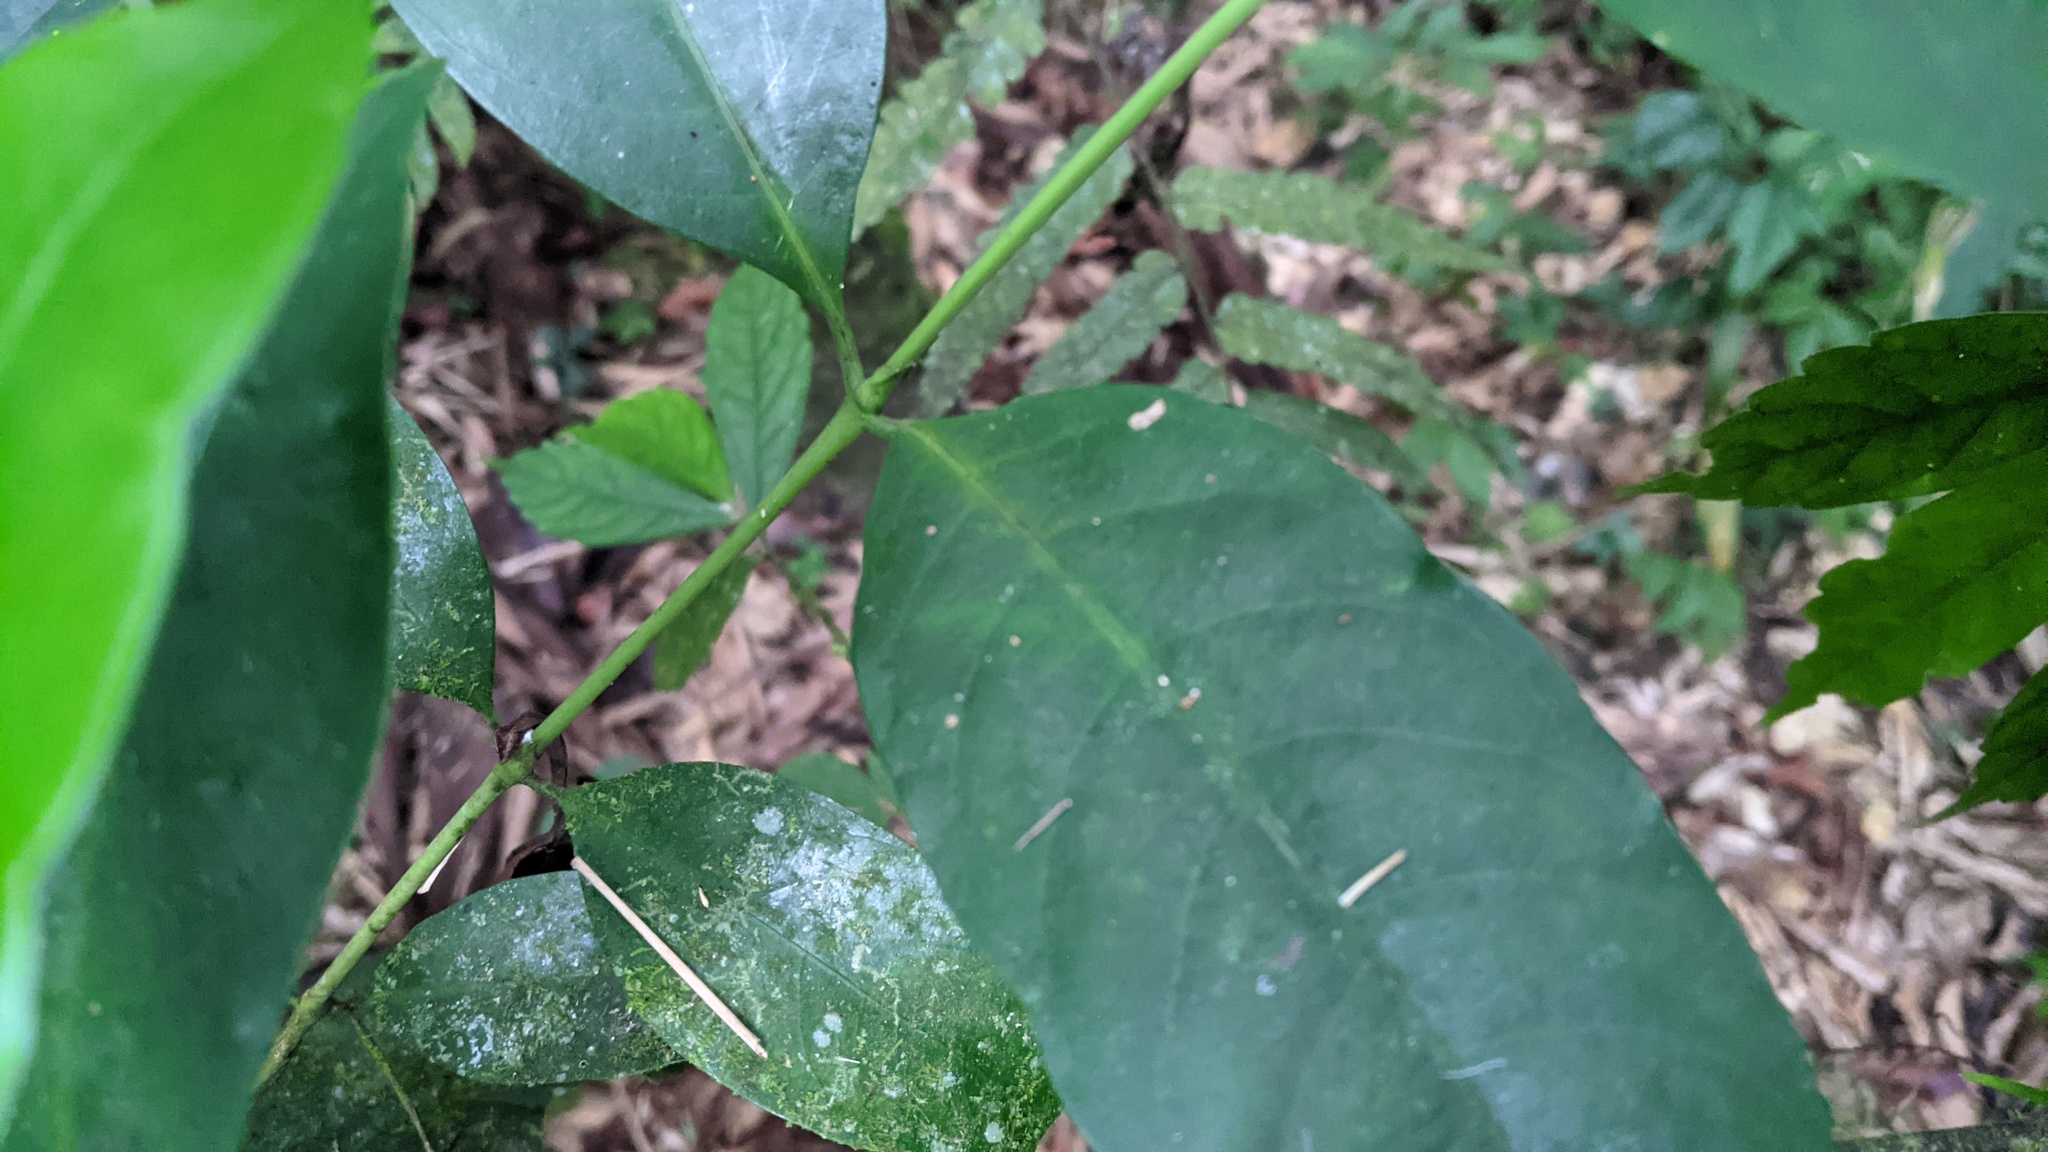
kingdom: Plantae
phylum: Tracheophyta
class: Magnoliopsida
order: Gentianales
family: Rubiaceae
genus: Diplospora
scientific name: Diplospora dubia
